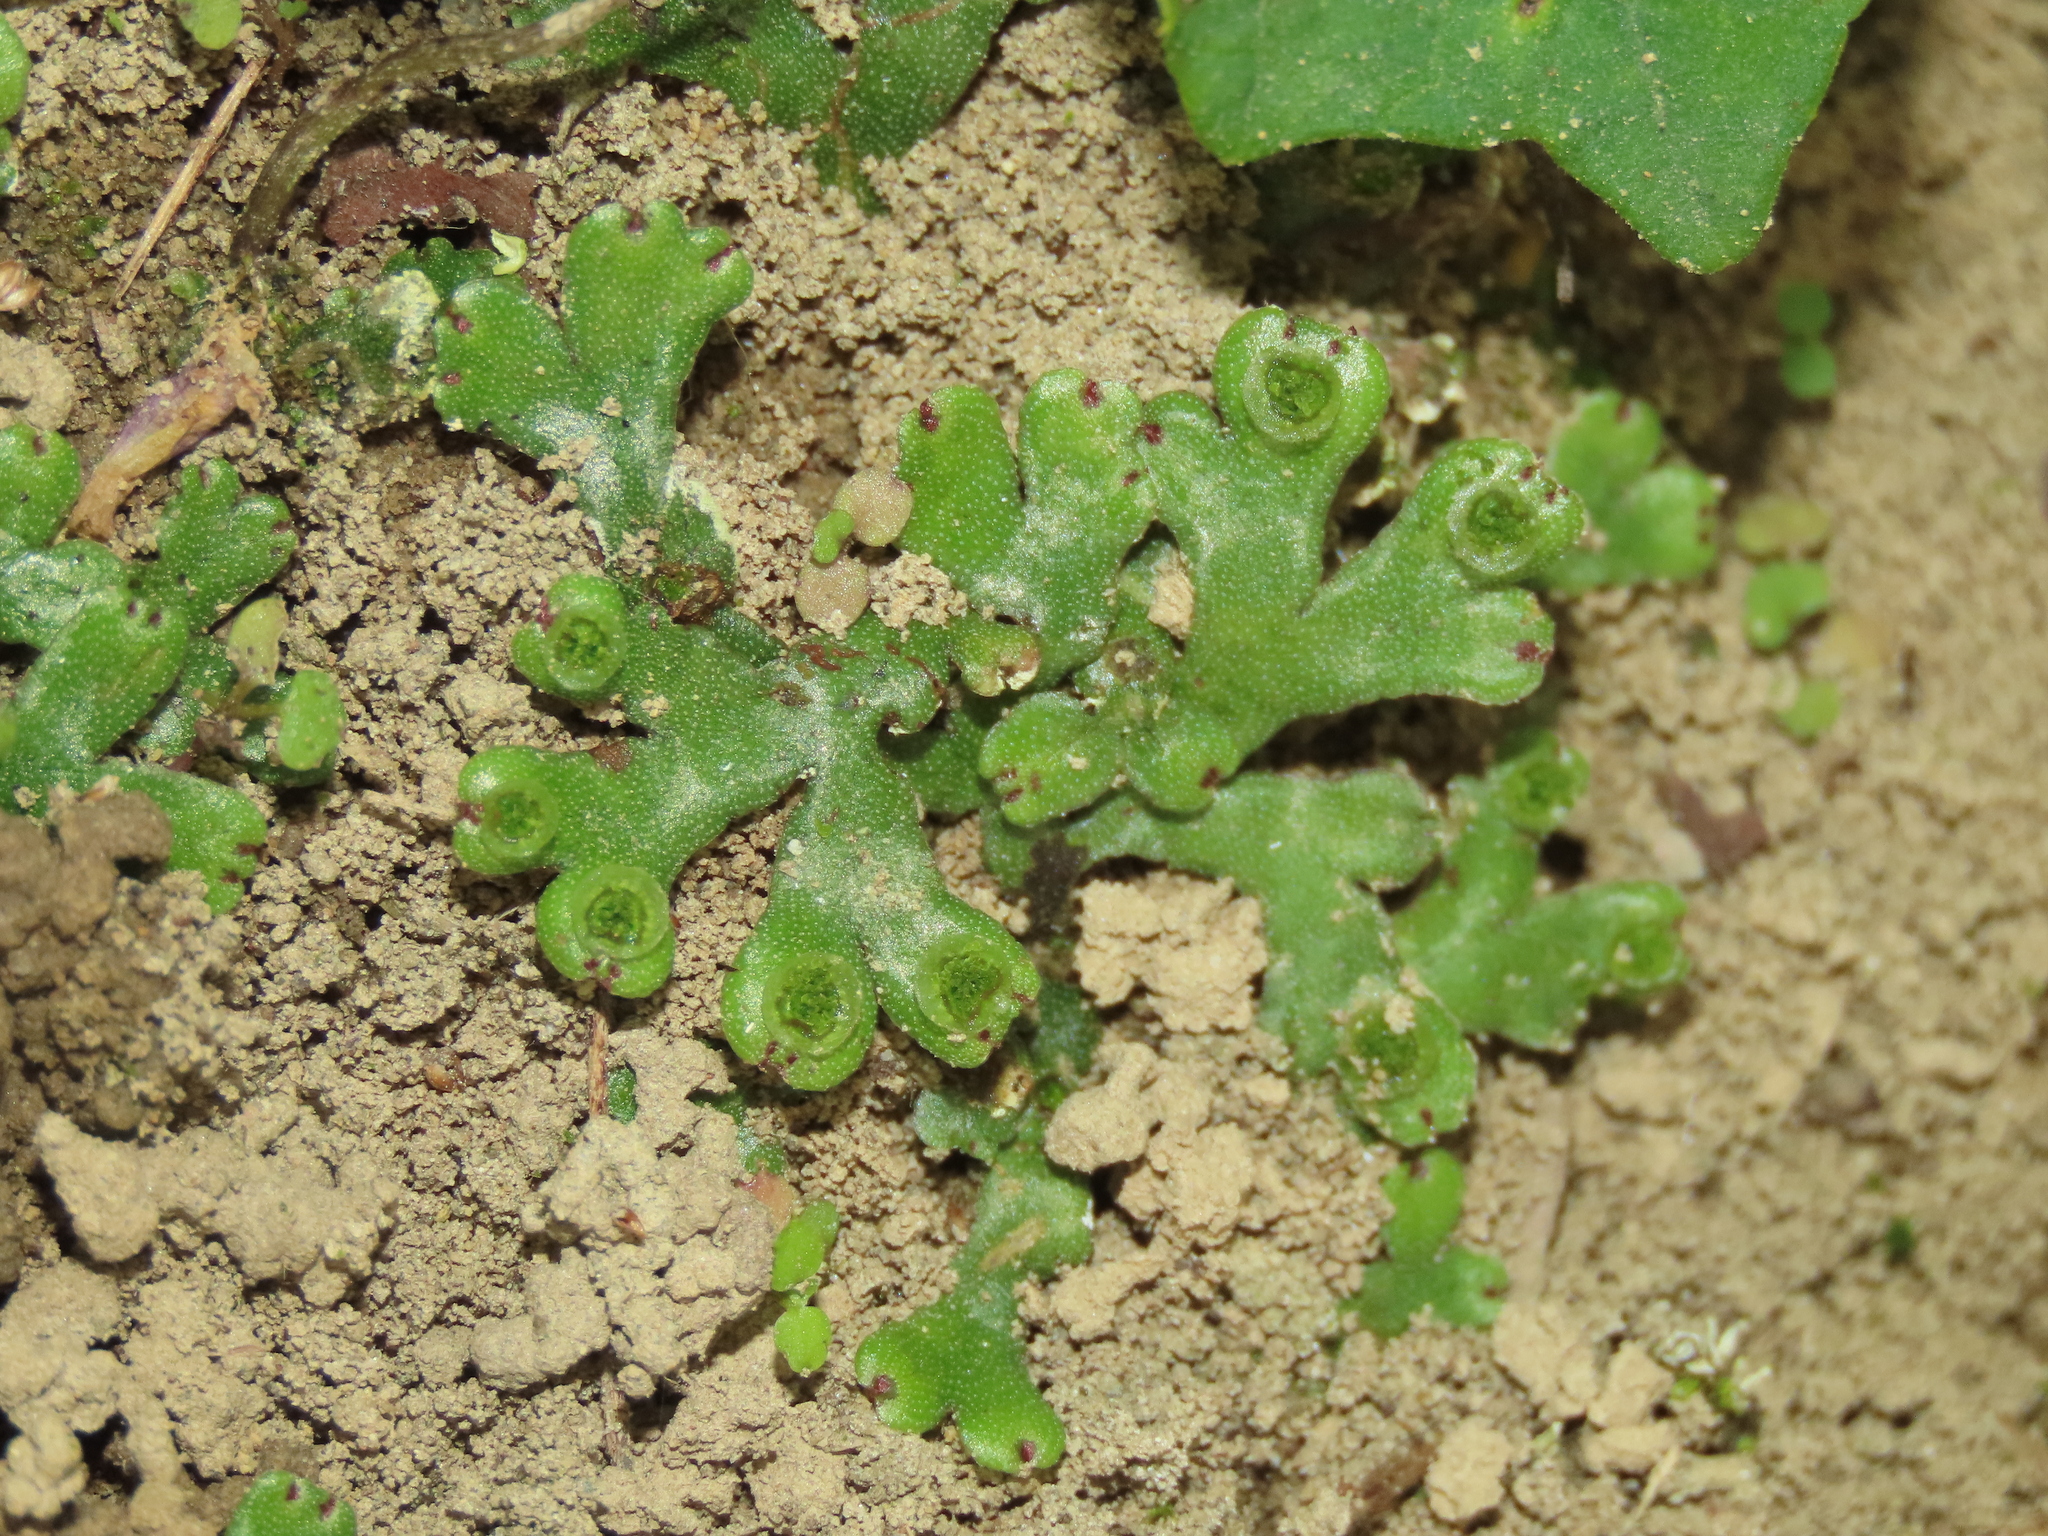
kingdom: Plantae
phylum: Marchantiophyta
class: Marchantiopsida
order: Marchantiales
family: Marchantiaceae
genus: Marchantia
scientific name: Marchantia emarginata
